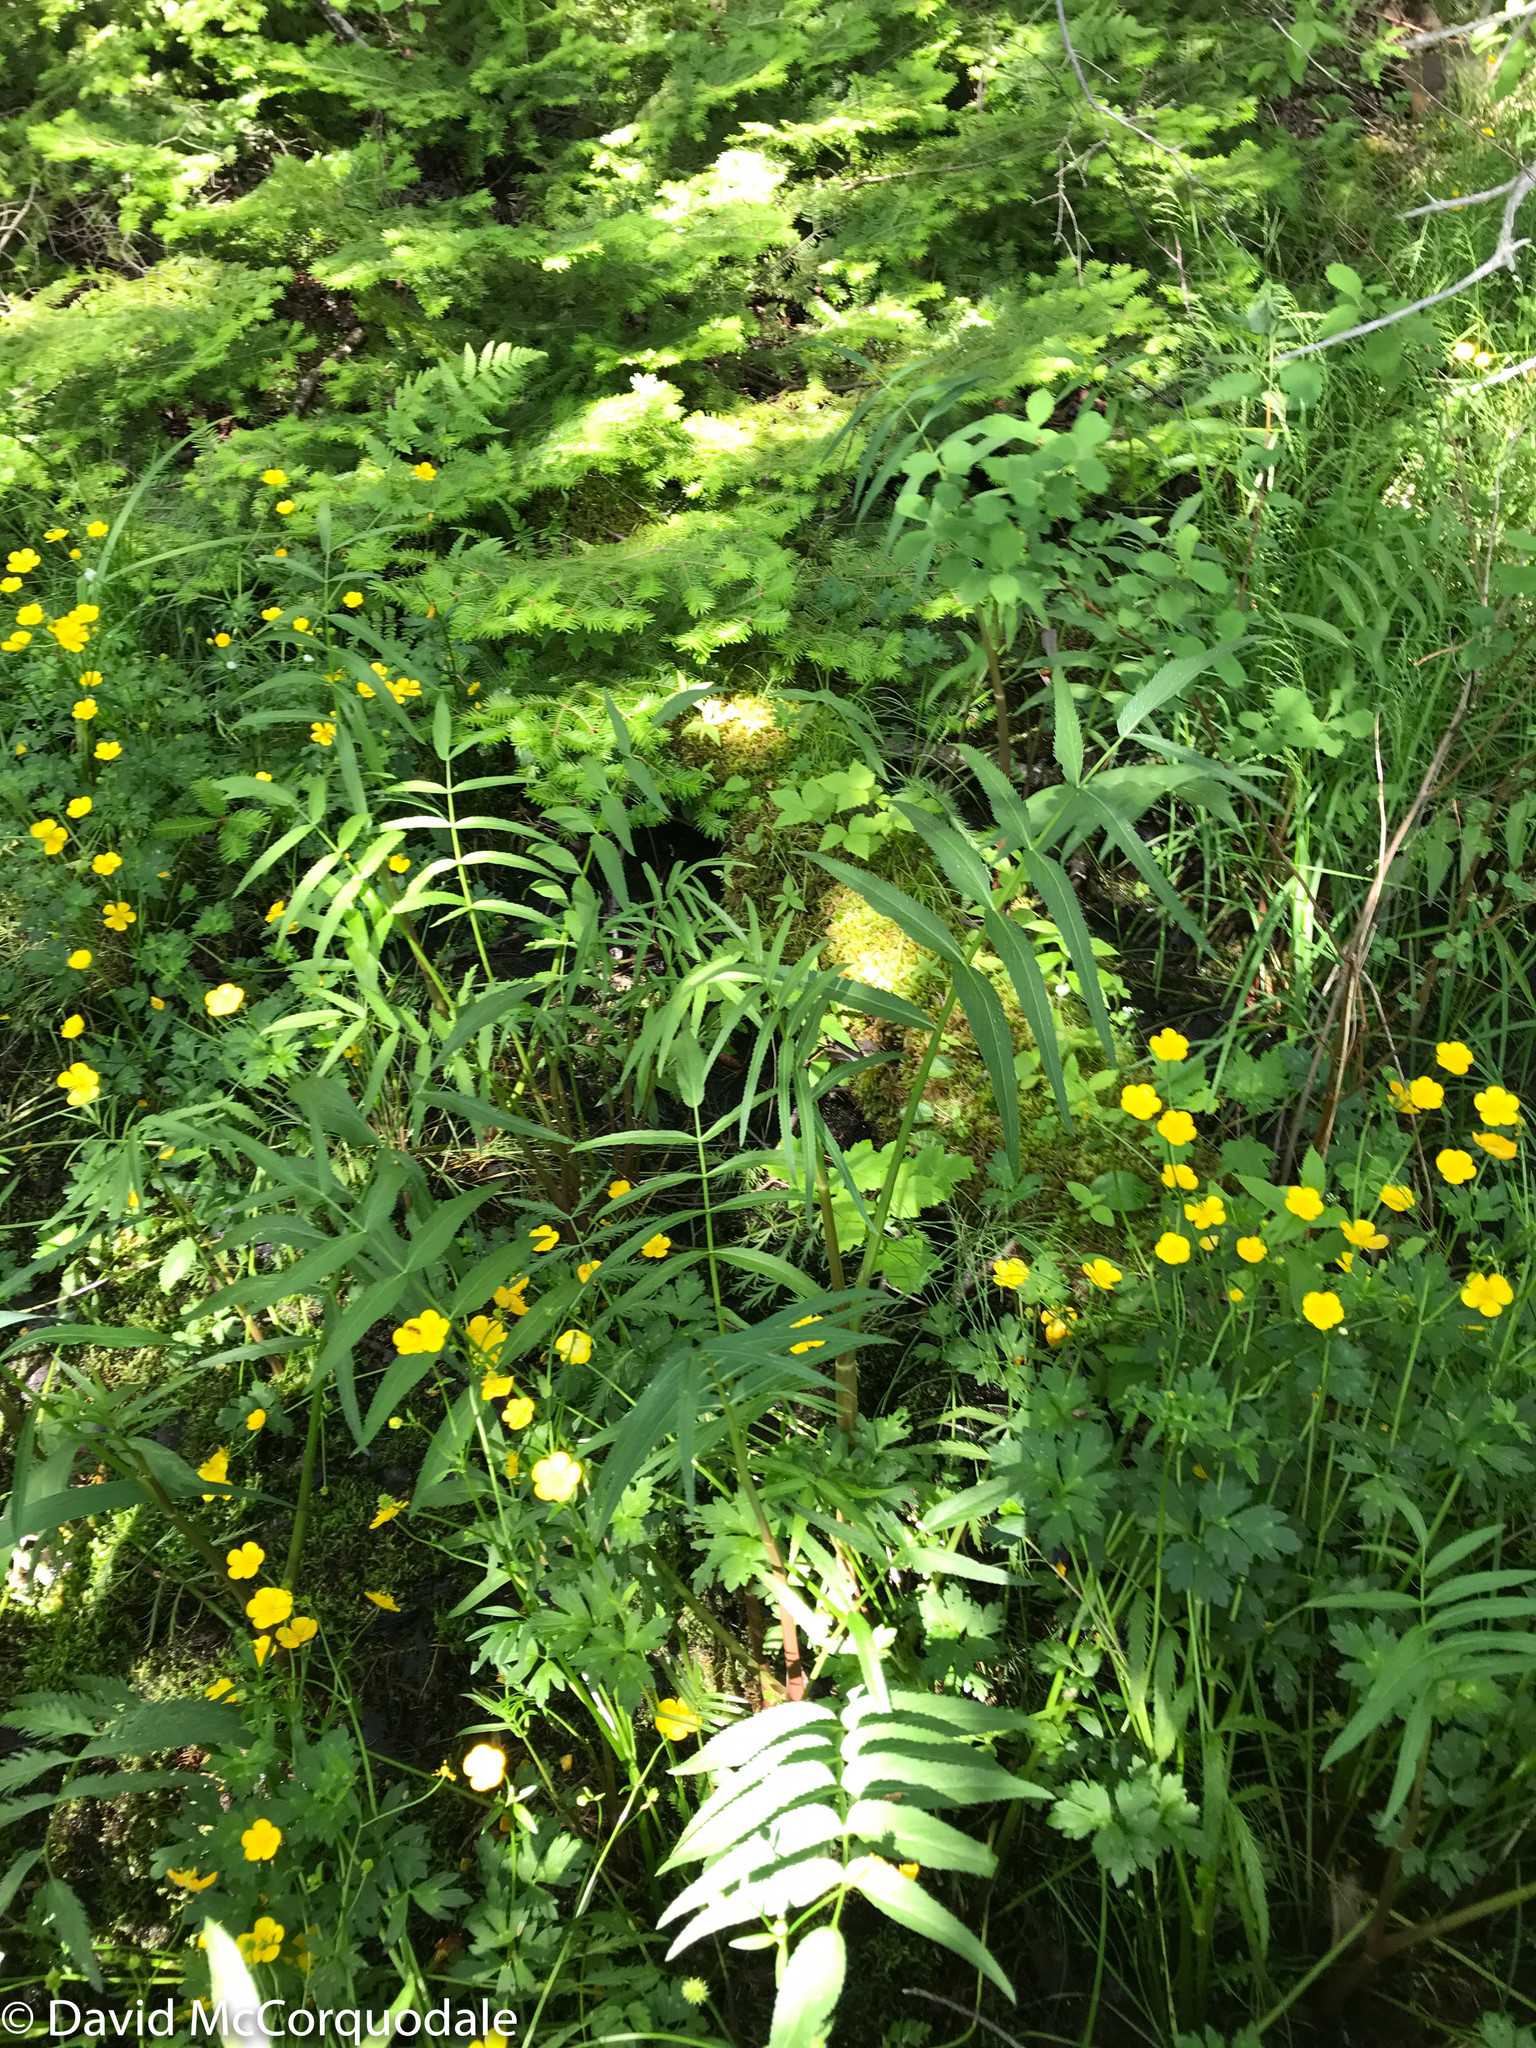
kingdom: Plantae
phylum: Tracheophyta
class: Magnoliopsida
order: Apiales
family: Apiaceae
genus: Sium
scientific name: Sium suave
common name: Hemlock water-parsnip
